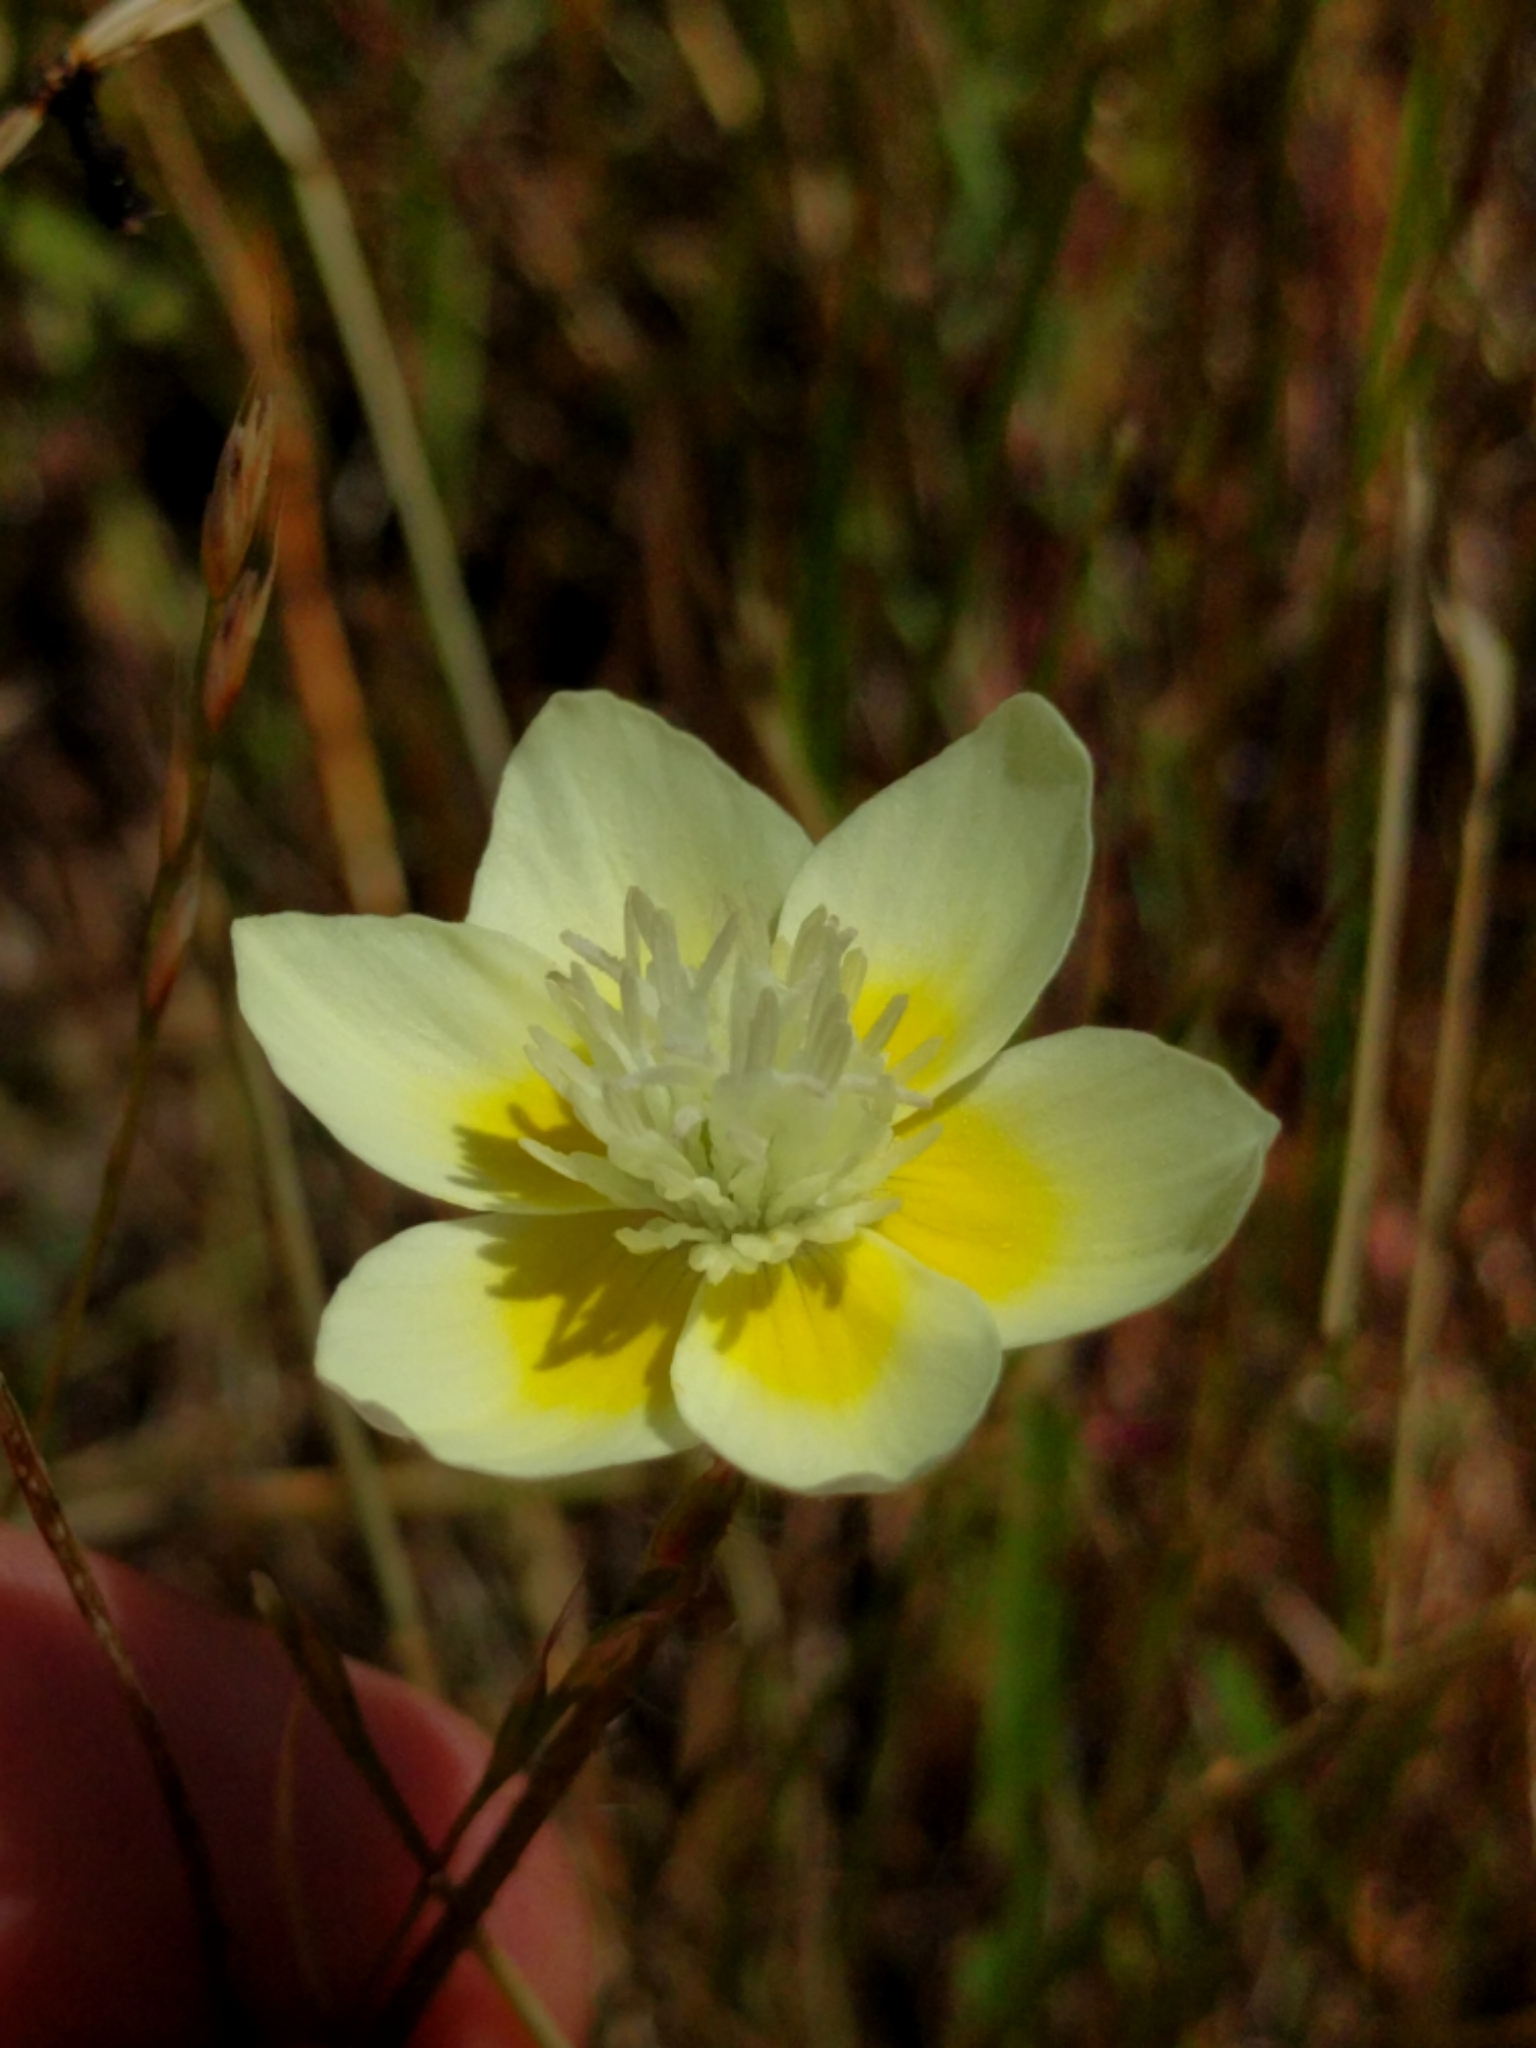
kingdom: Plantae
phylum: Tracheophyta
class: Magnoliopsida
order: Ranunculales
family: Papaveraceae
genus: Platystemon
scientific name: Platystemon californicus
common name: Cream-cups
